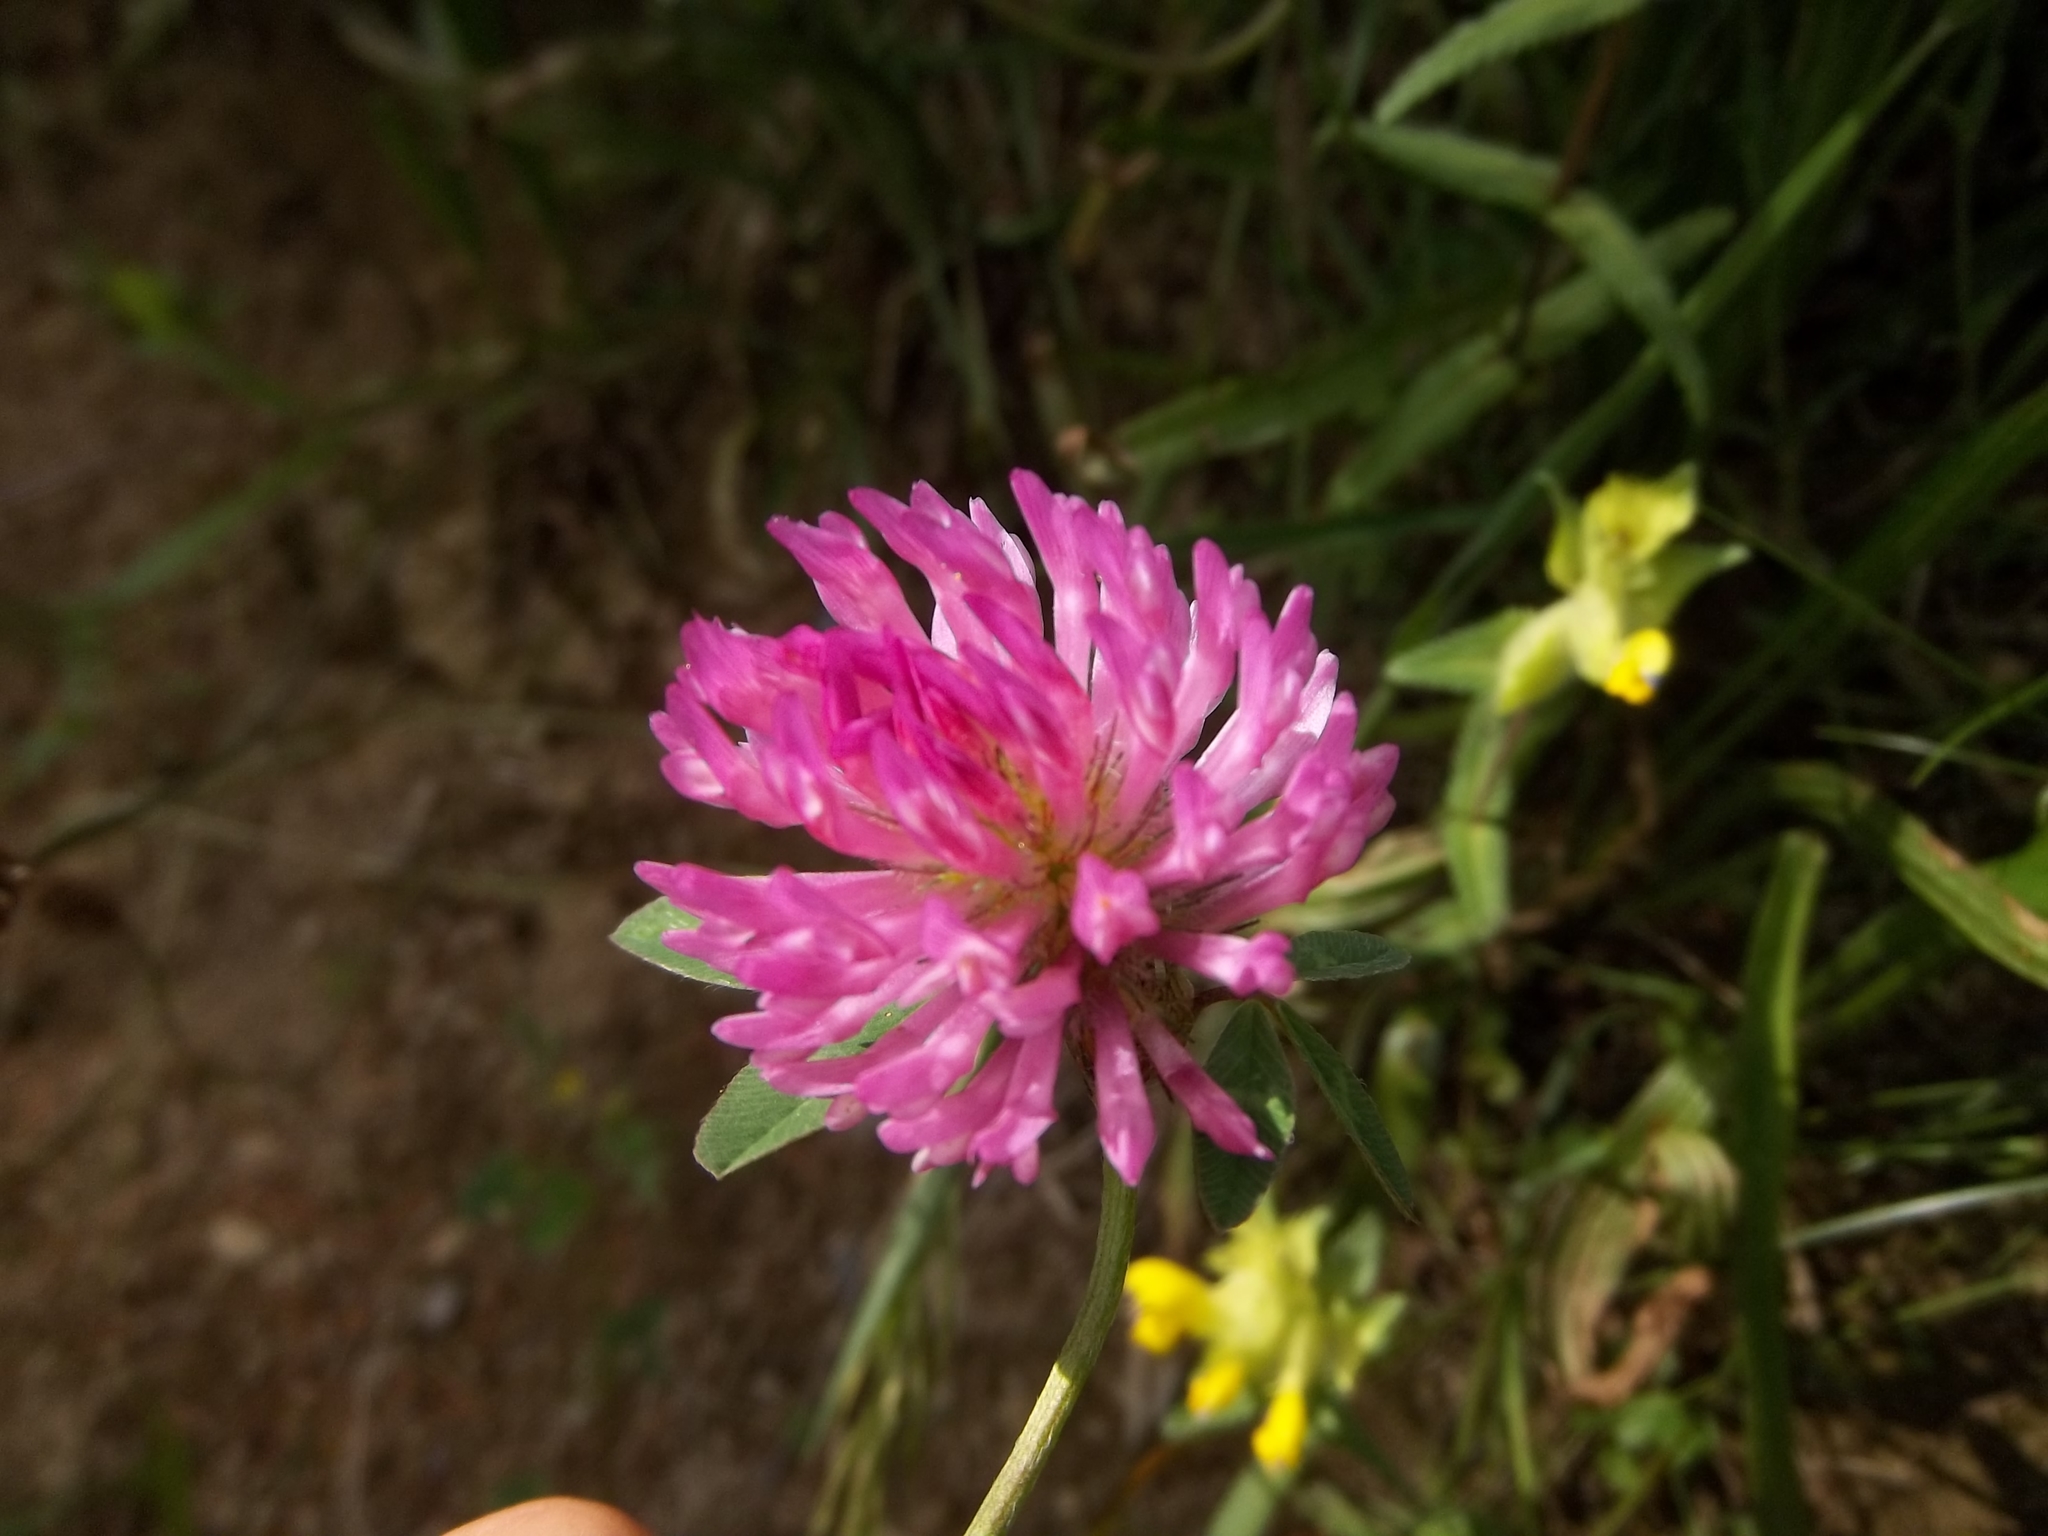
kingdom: Plantae
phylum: Tracheophyta
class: Magnoliopsida
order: Fabales
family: Fabaceae
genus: Trifolium
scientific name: Trifolium pratense
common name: Red clover
